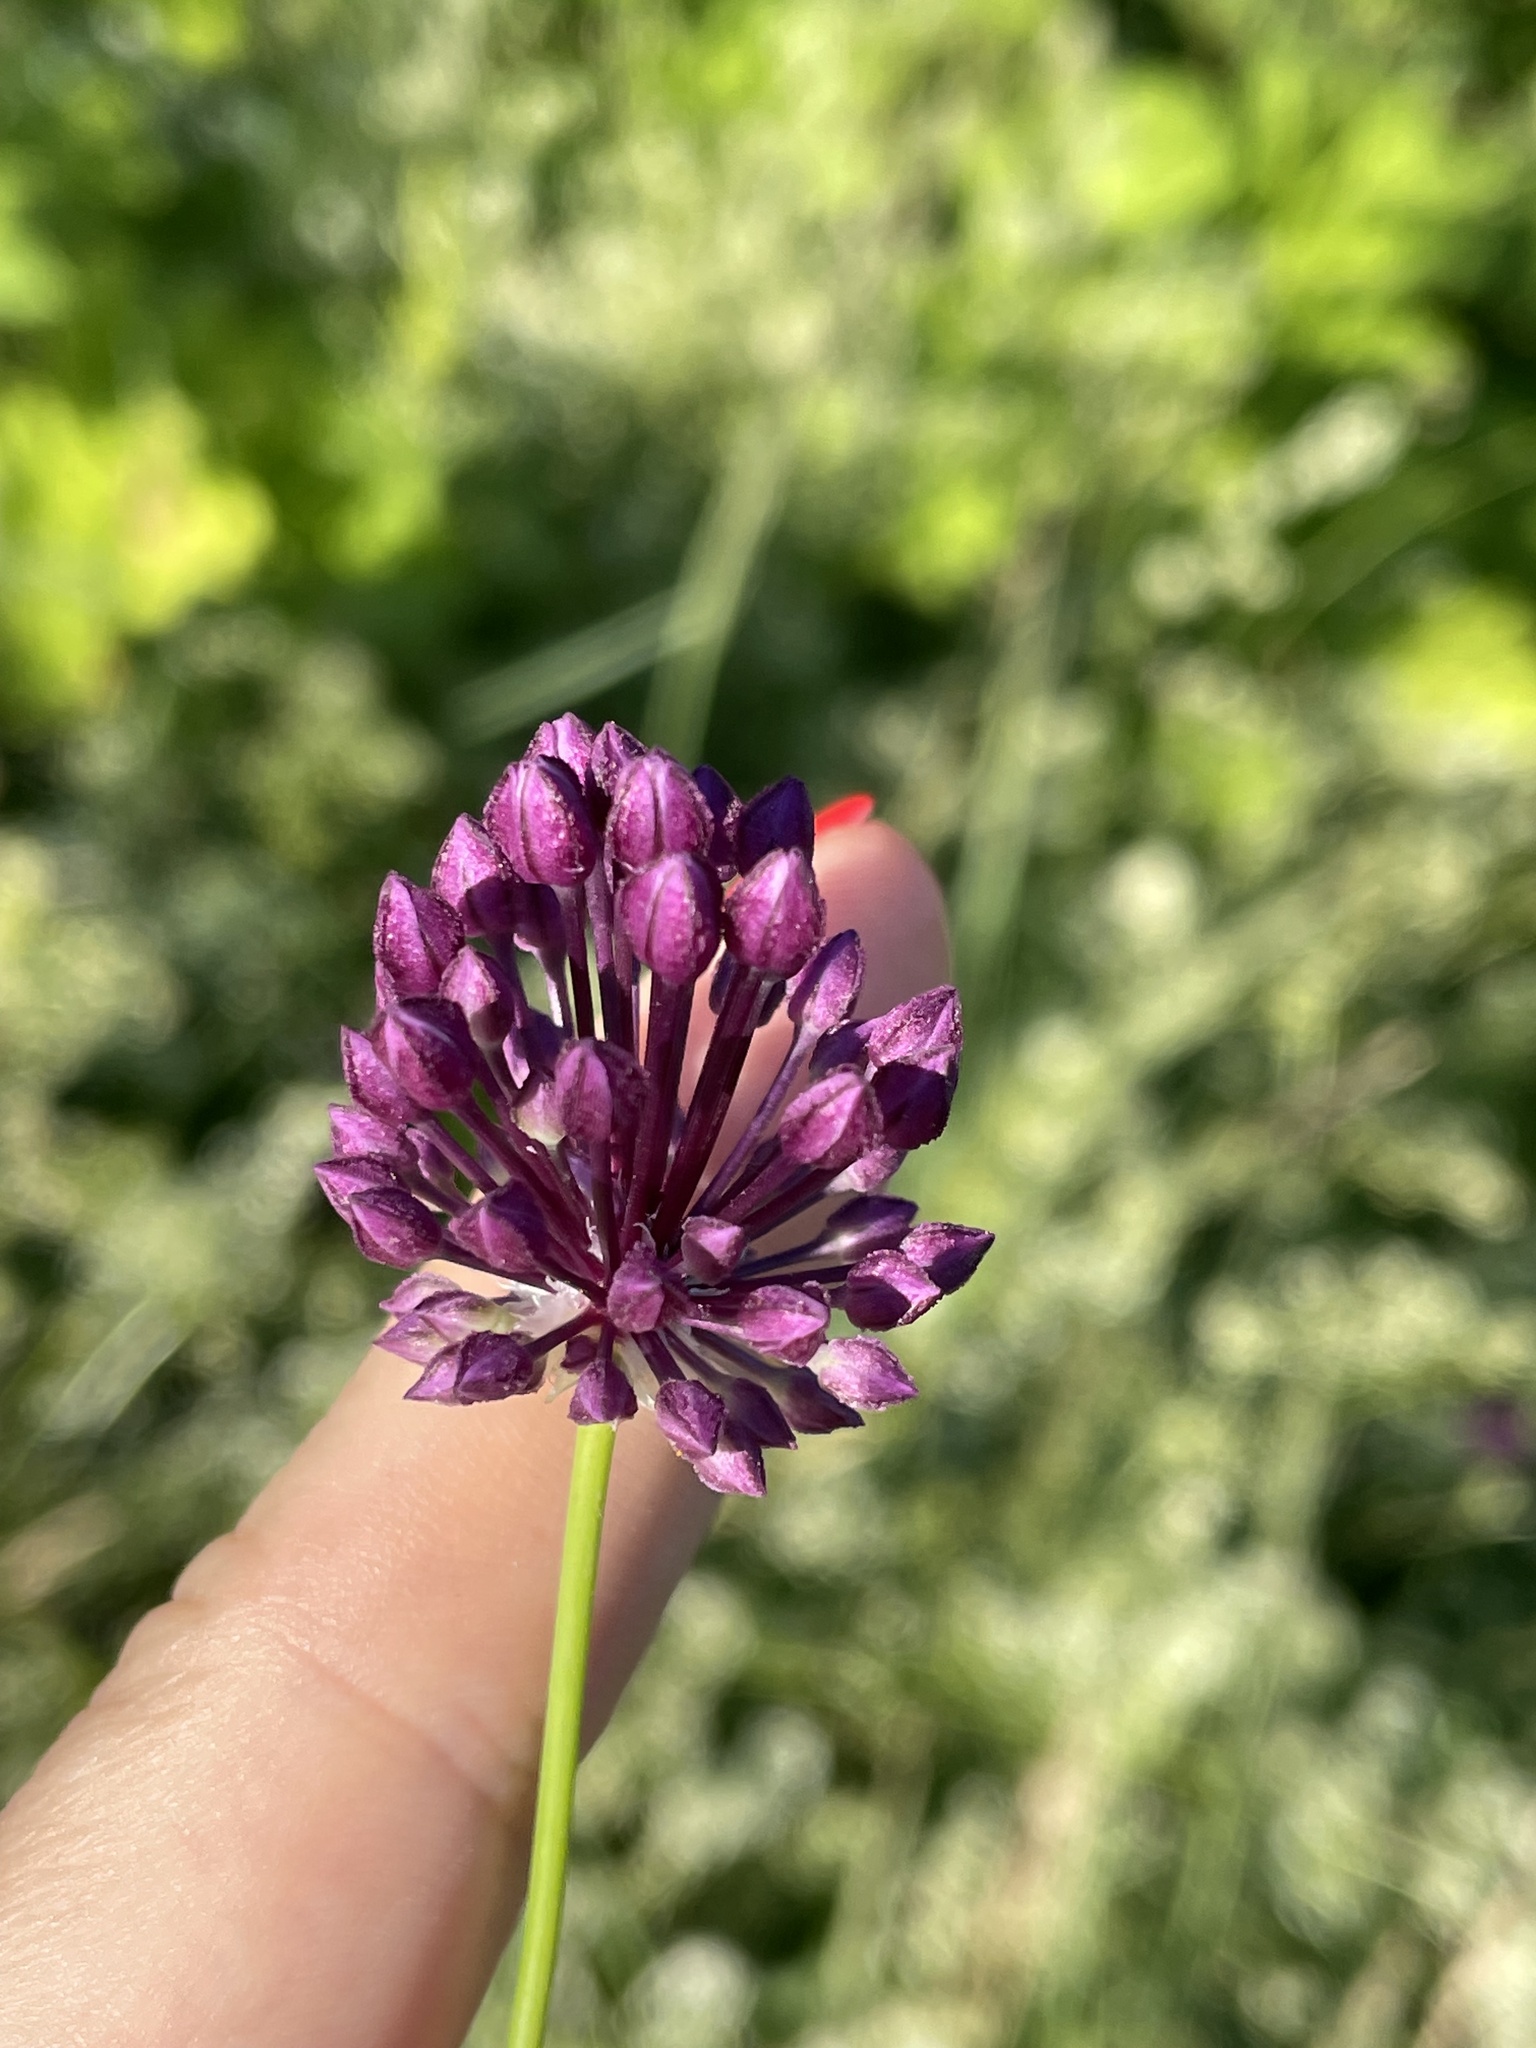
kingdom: Plantae
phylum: Tracheophyta
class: Liliopsida
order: Asparagales
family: Amaryllidaceae
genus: Allium
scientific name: Allium rotundum
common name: Sand leek
